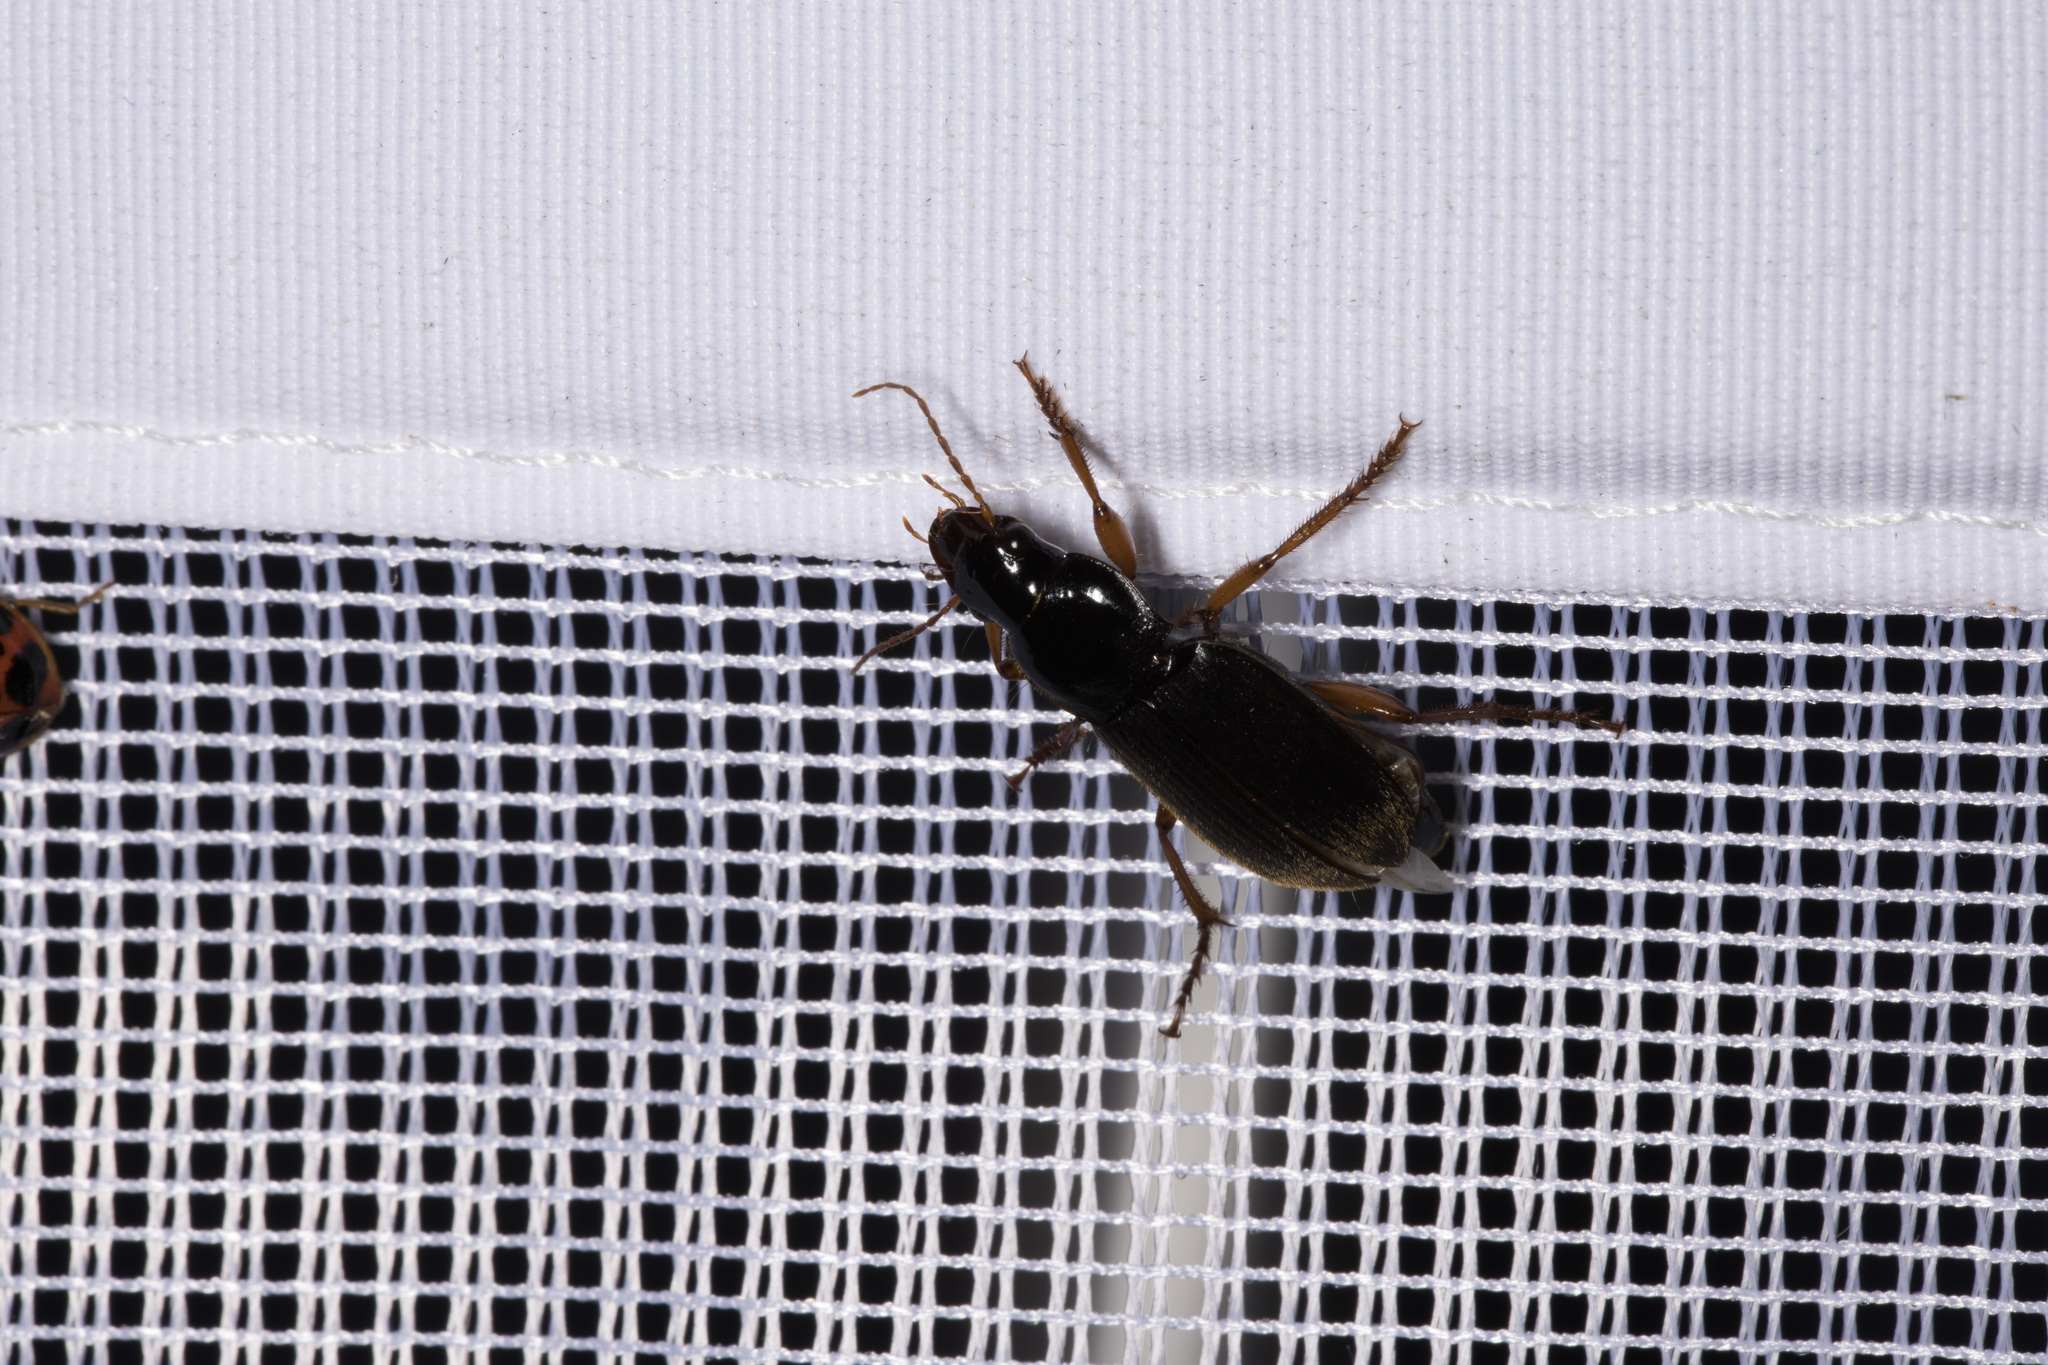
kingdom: Animalia
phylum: Arthropoda
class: Insecta
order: Coleoptera
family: Carabidae
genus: Harpalus
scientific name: Harpalus rufipes
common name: Strawberry harp ground beetle
